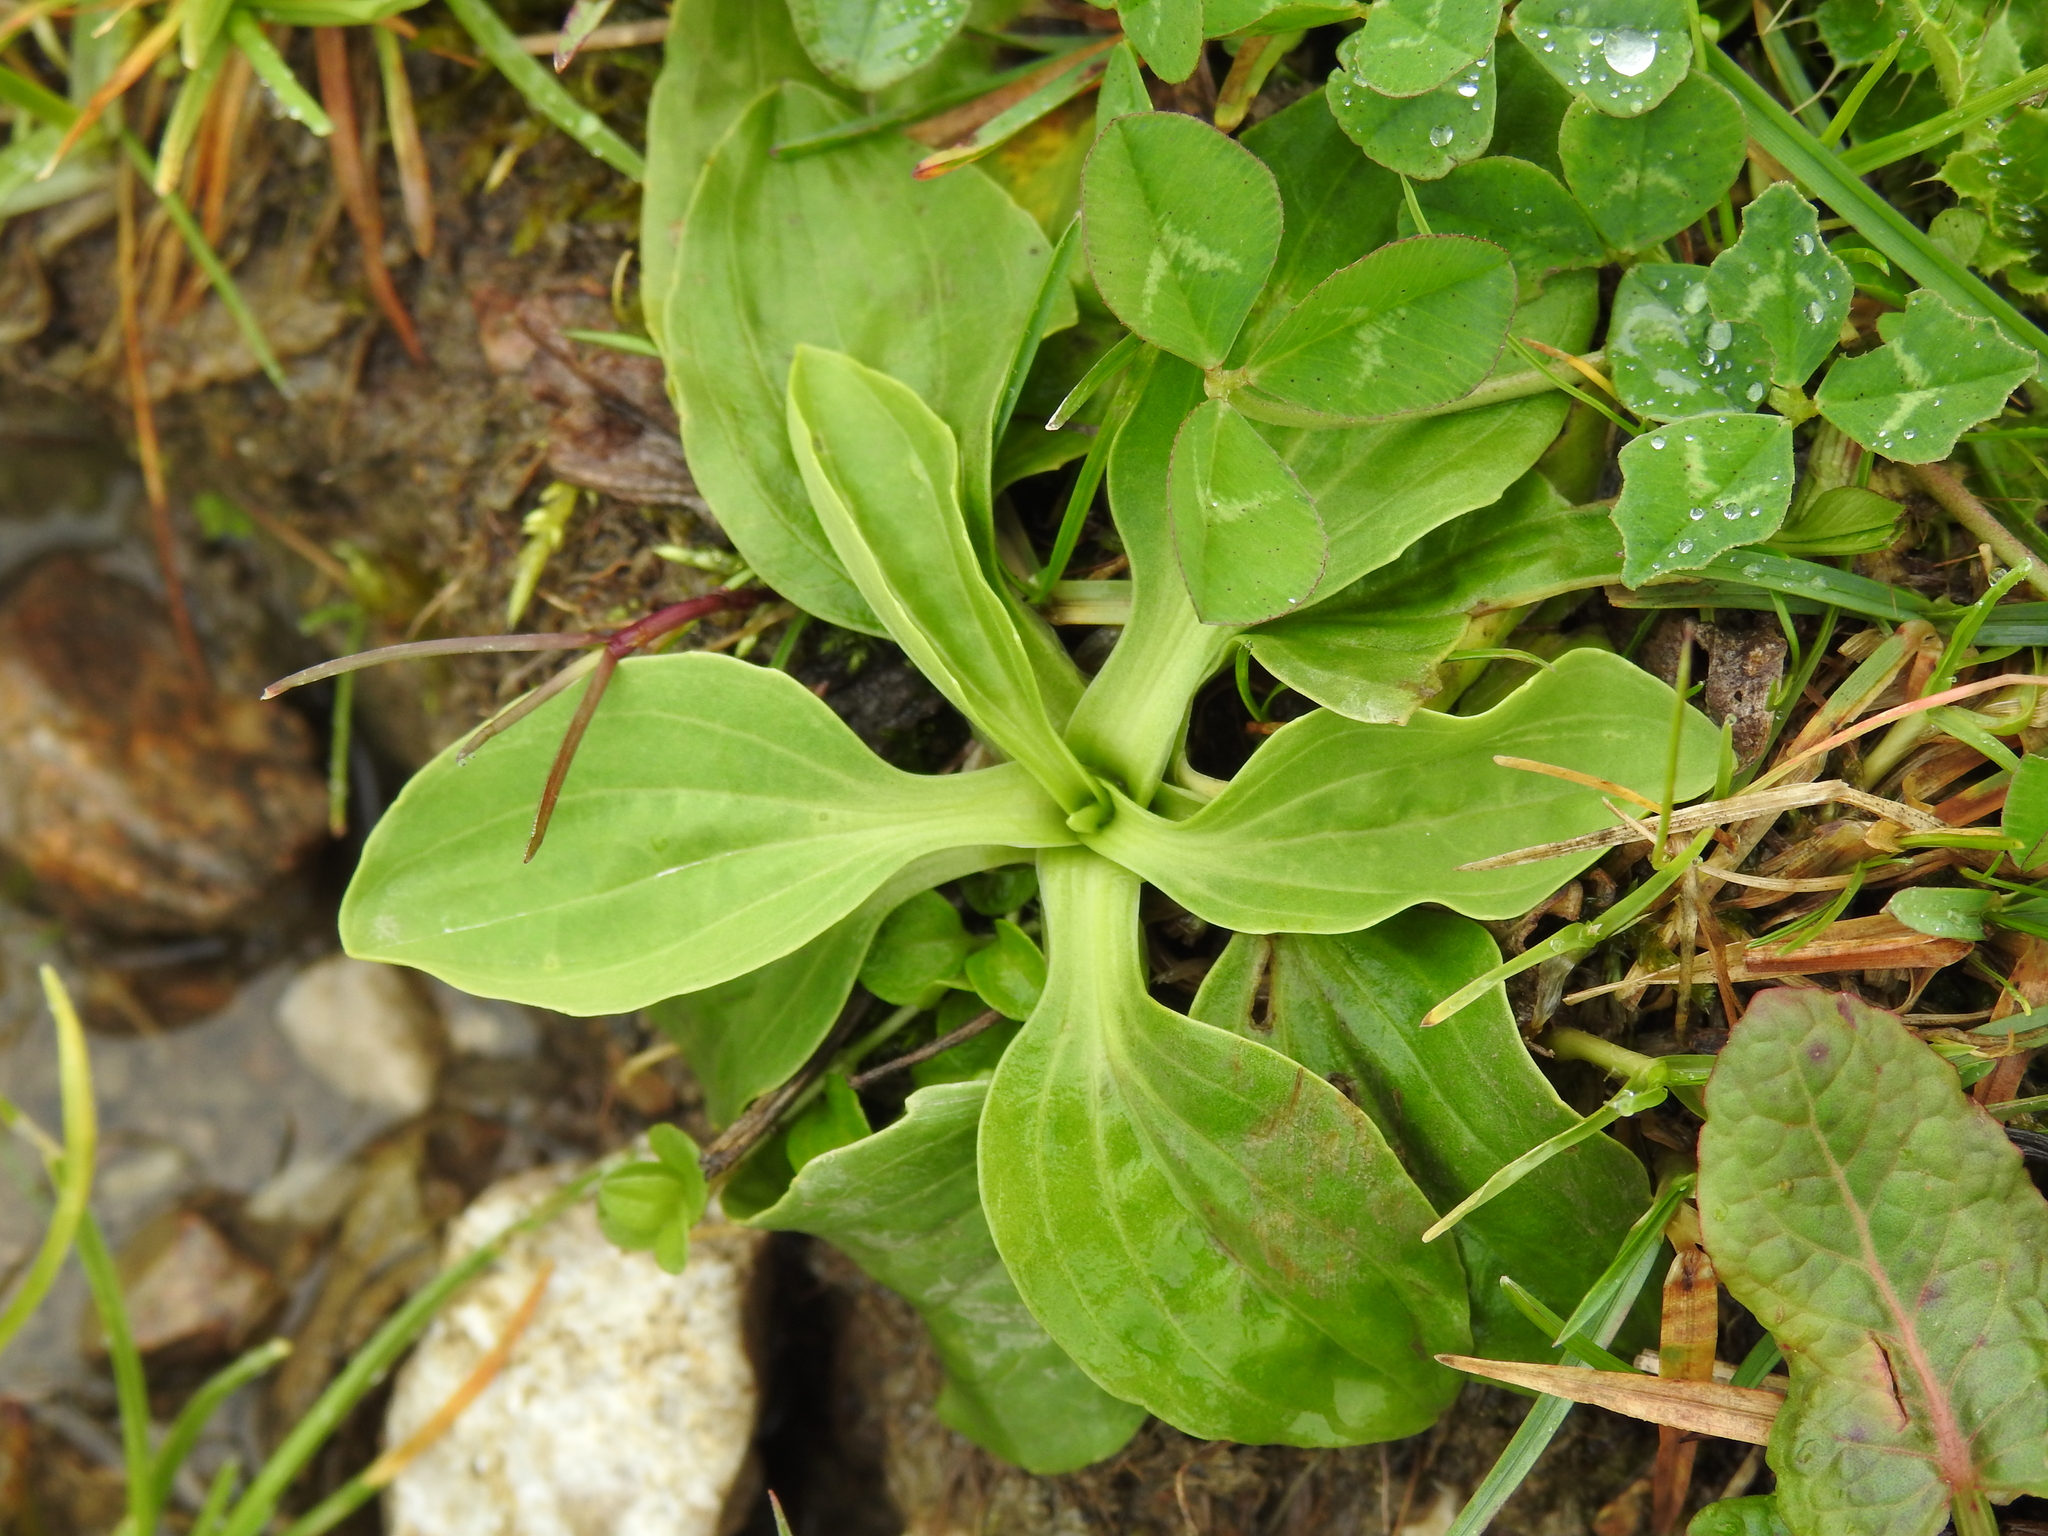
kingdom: Plantae
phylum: Tracheophyta
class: Magnoliopsida
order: Lamiales
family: Plantaginaceae
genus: Plantago
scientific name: Plantago major
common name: Common plantain
